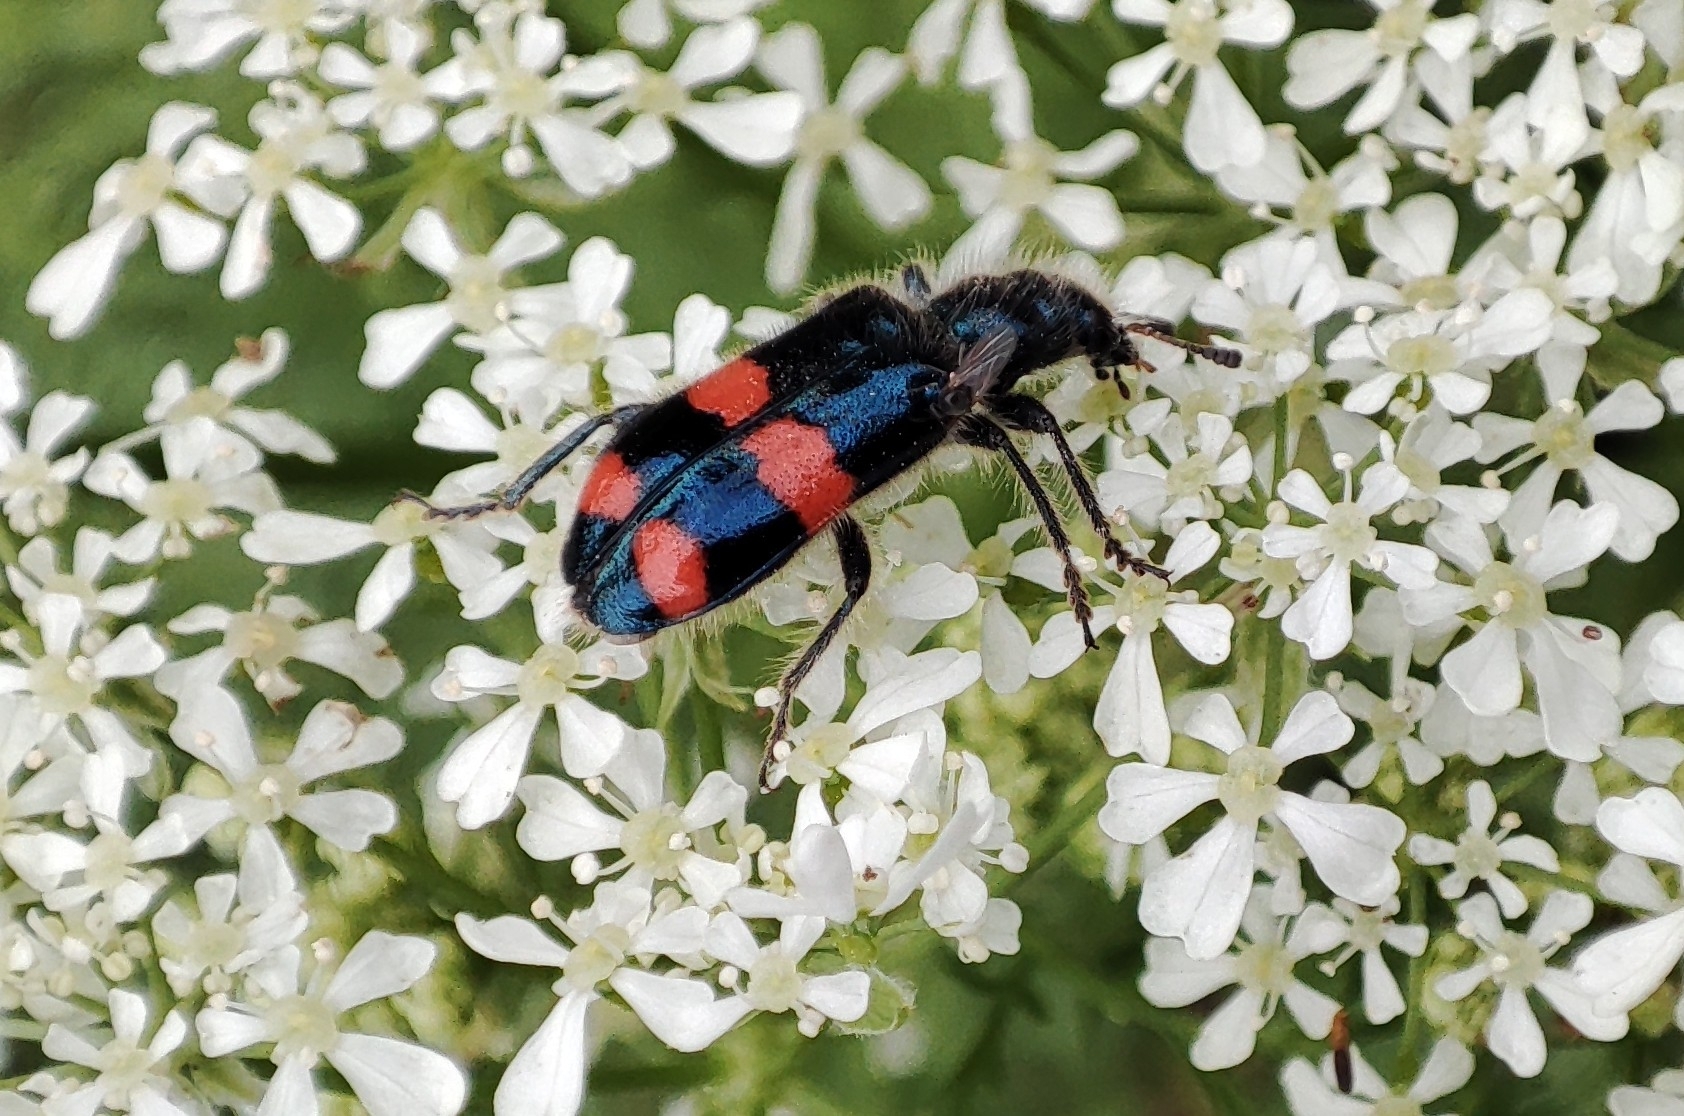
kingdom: Animalia
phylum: Arthropoda
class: Insecta
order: Coleoptera
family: Cleridae
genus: Trichodes
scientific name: Trichodes
